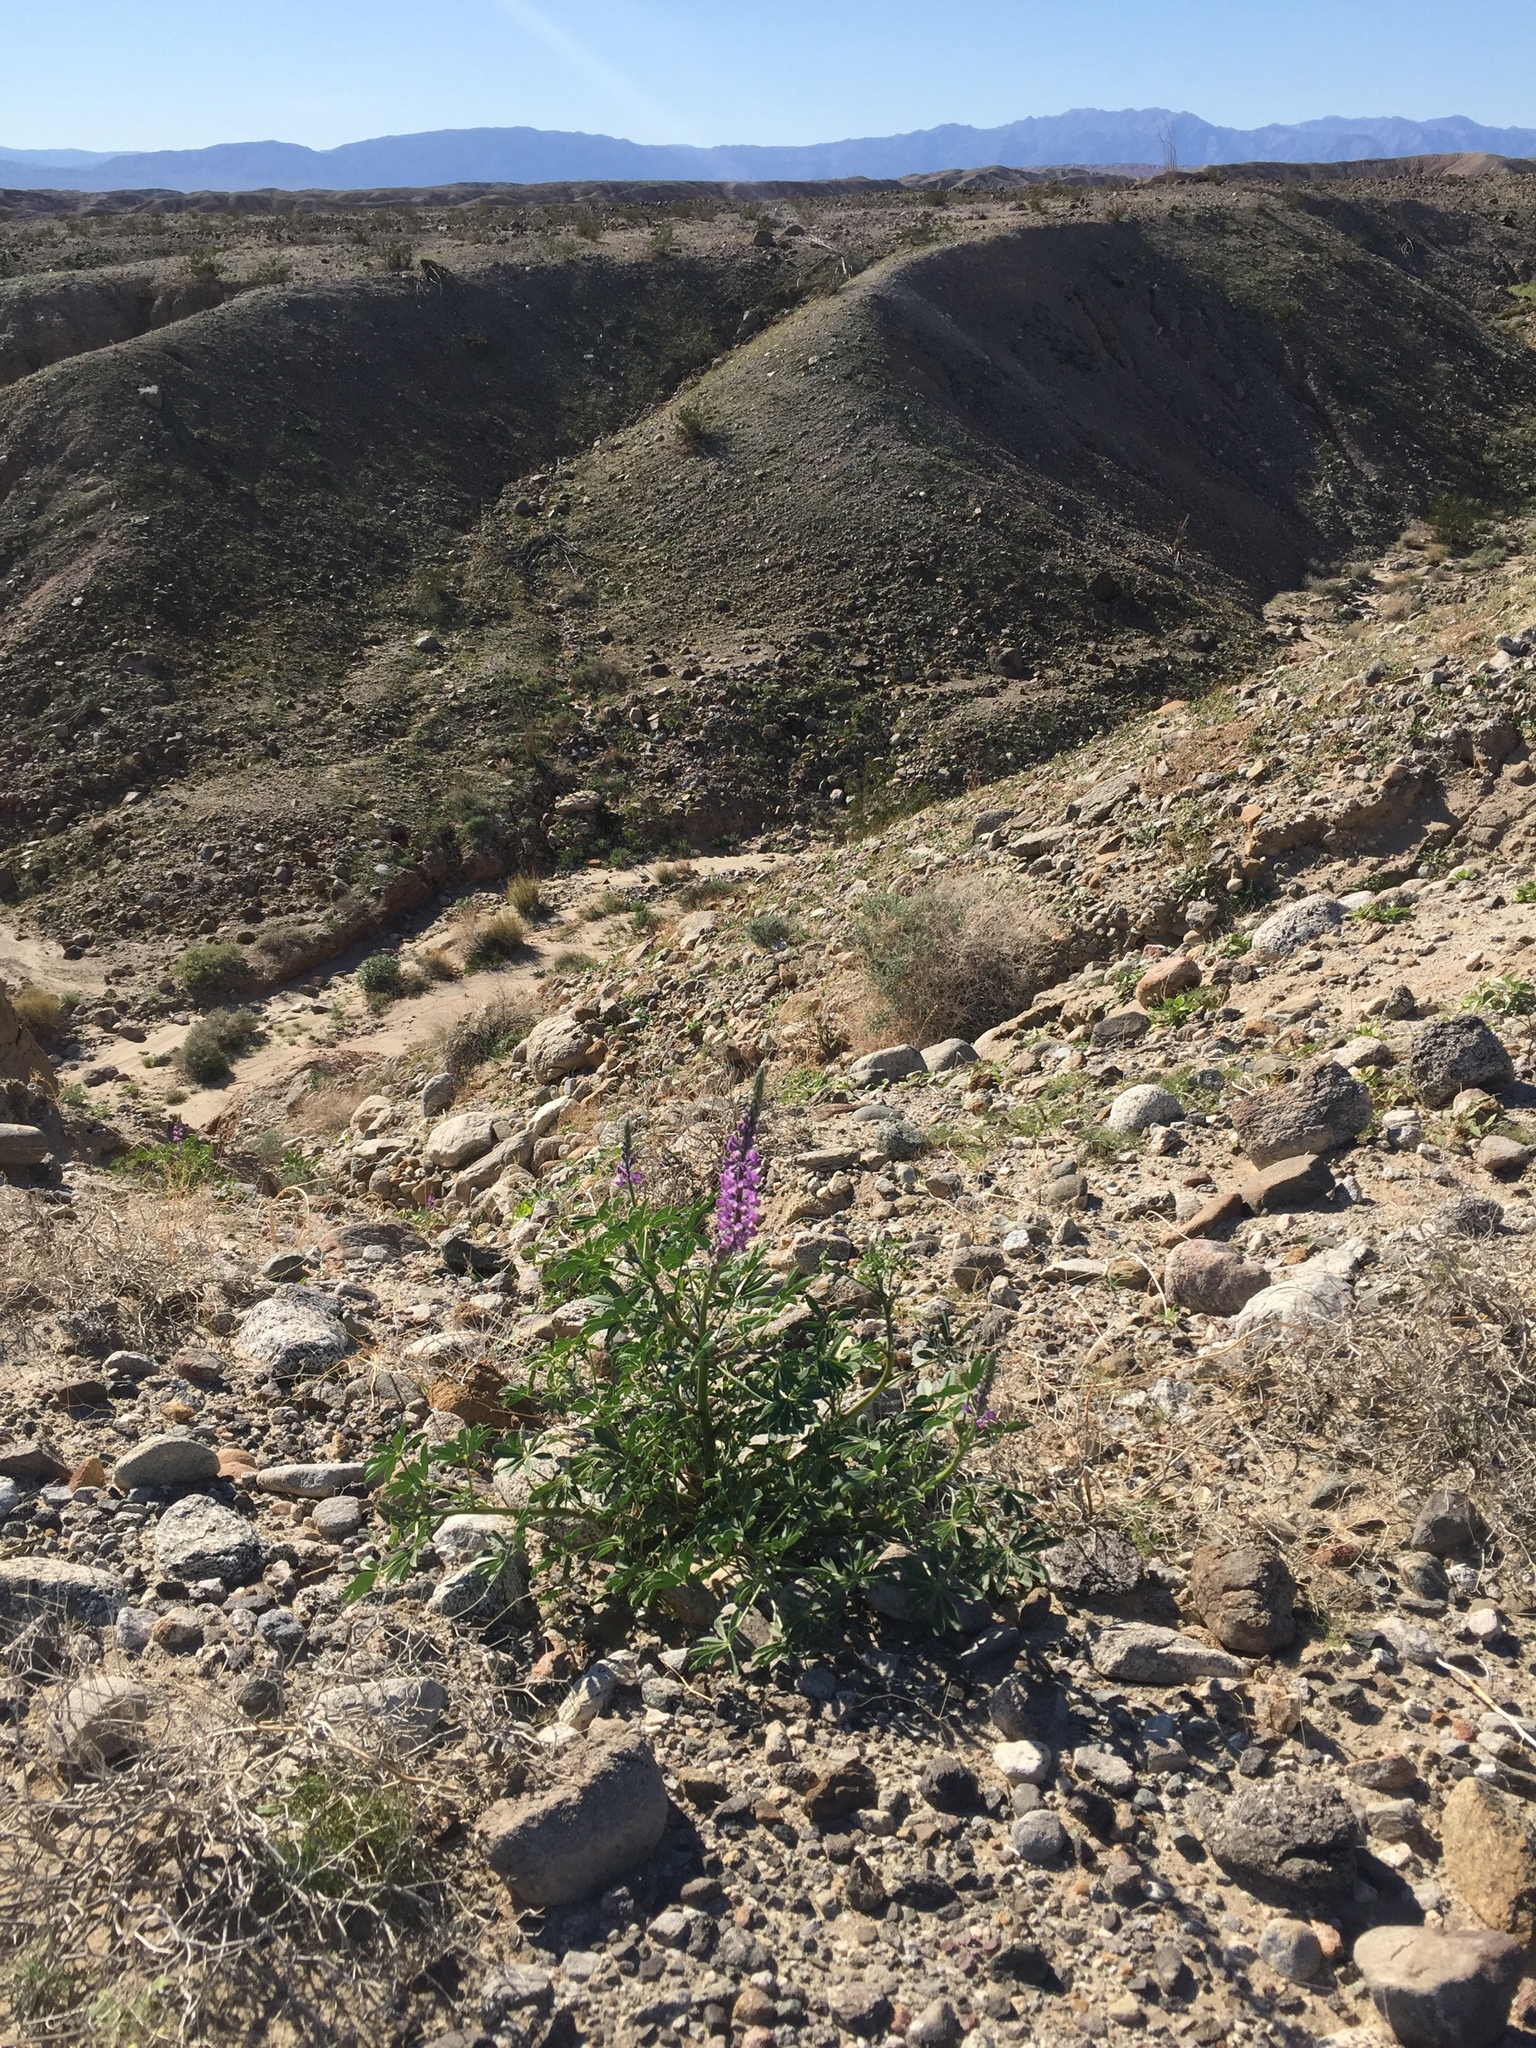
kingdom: Plantae
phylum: Tracheophyta
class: Magnoliopsida
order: Fabales
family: Fabaceae
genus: Lupinus
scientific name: Lupinus arizonicus
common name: Arizona lupine
